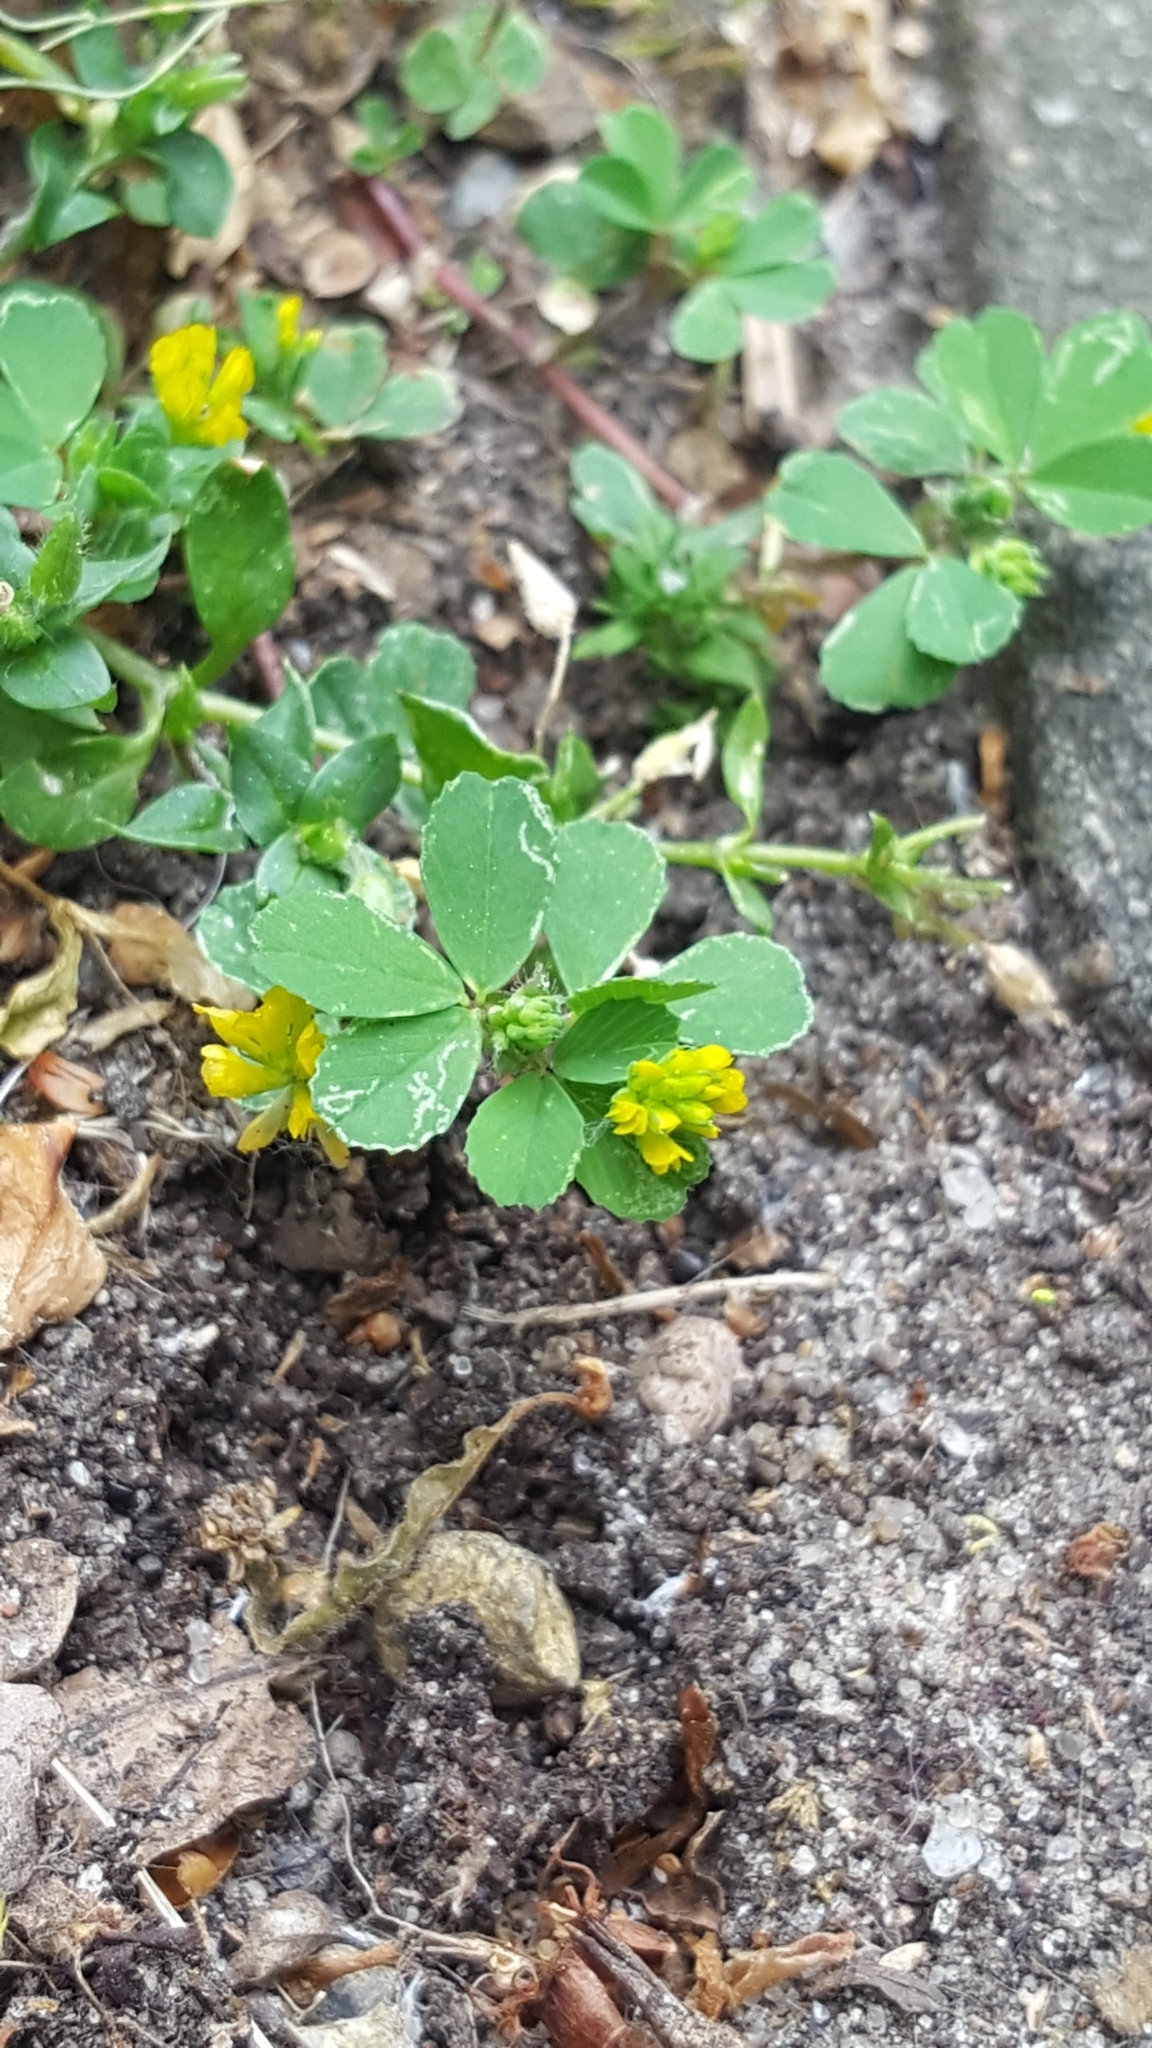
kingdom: Plantae
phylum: Tracheophyta
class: Magnoliopsida
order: Fabales
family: Fabaceae
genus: Trifolium
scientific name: Trifolium dubium
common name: Suckling clover
